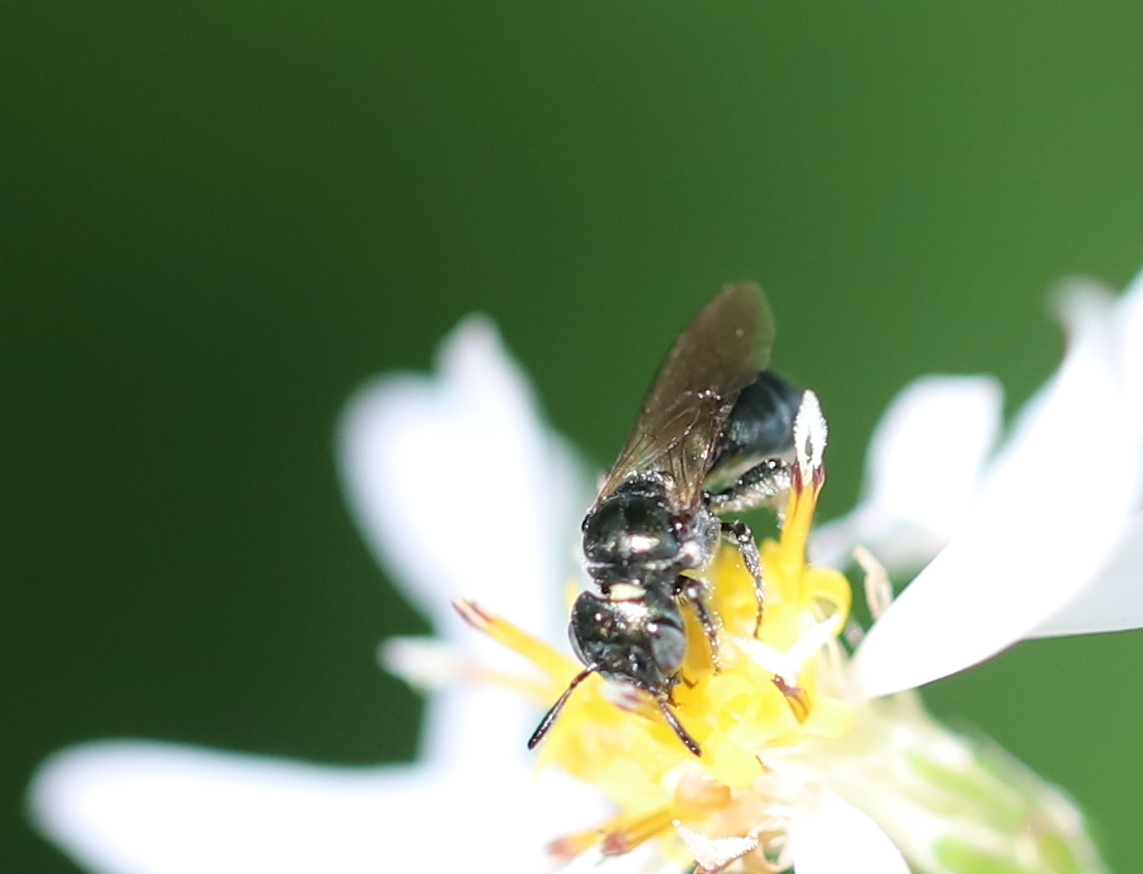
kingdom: Animalia
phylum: Arthropoda
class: Insecta
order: Hymenoptera
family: Apidae
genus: Ceratina
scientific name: Ceratina calcarata
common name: Spurred carpenter bee
